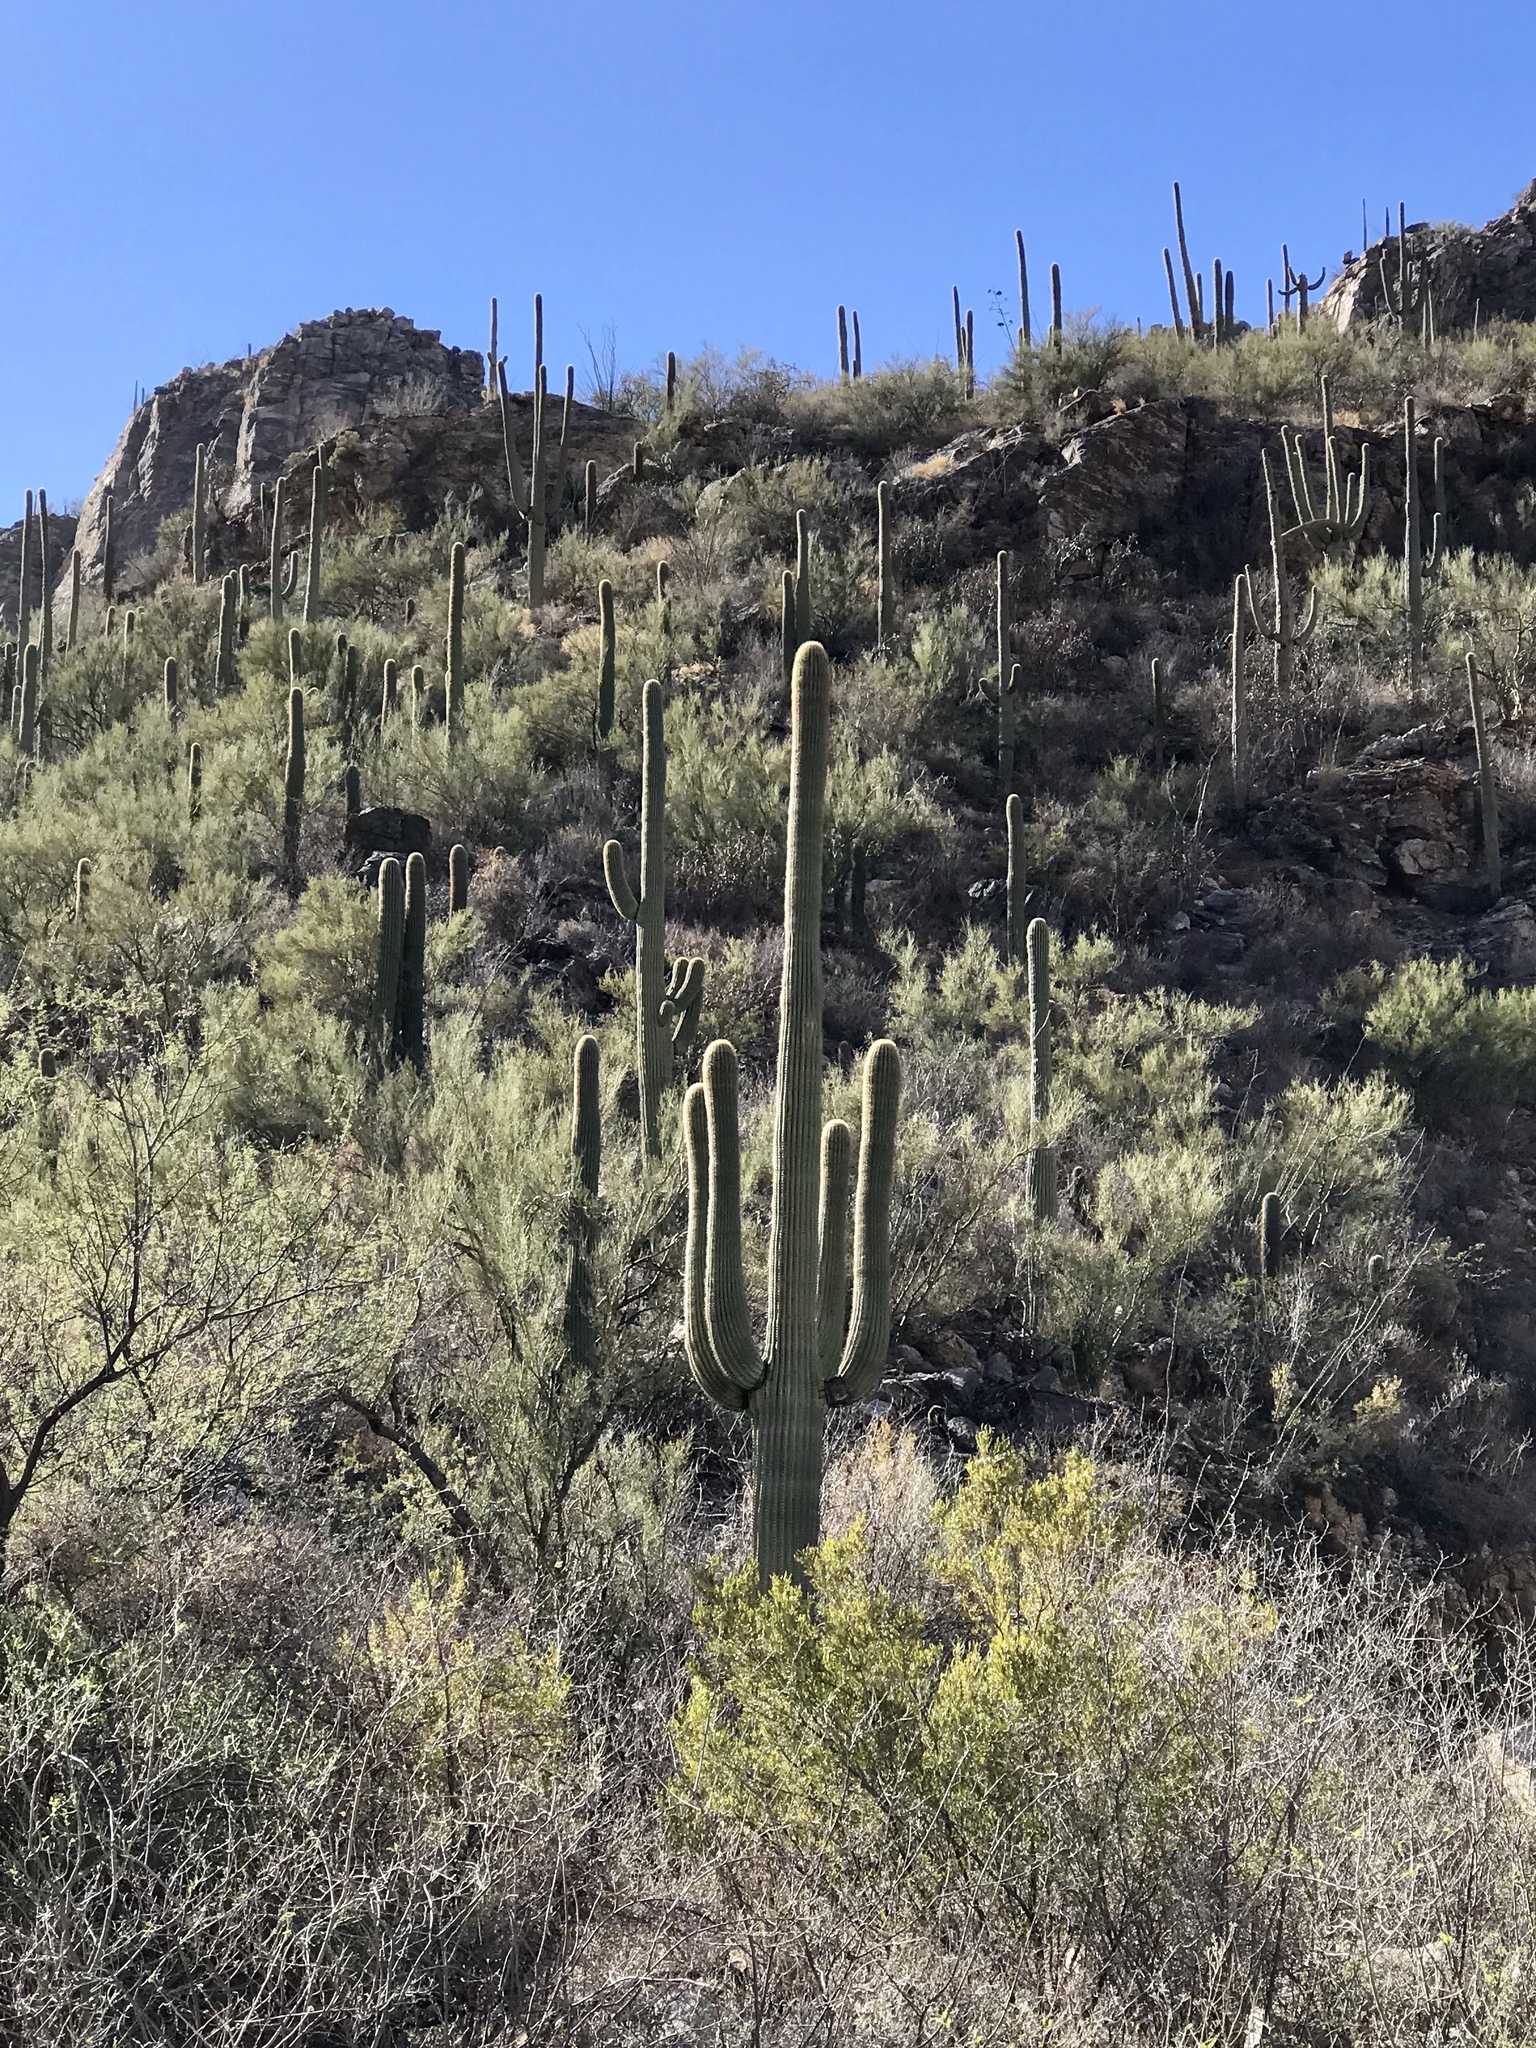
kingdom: Plantae
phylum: Tracheophyta
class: Magnoliopsida
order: Caryophyllales
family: Cactaceae
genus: Carnegiea
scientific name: Carnegiea gigantea
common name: Saguaro
